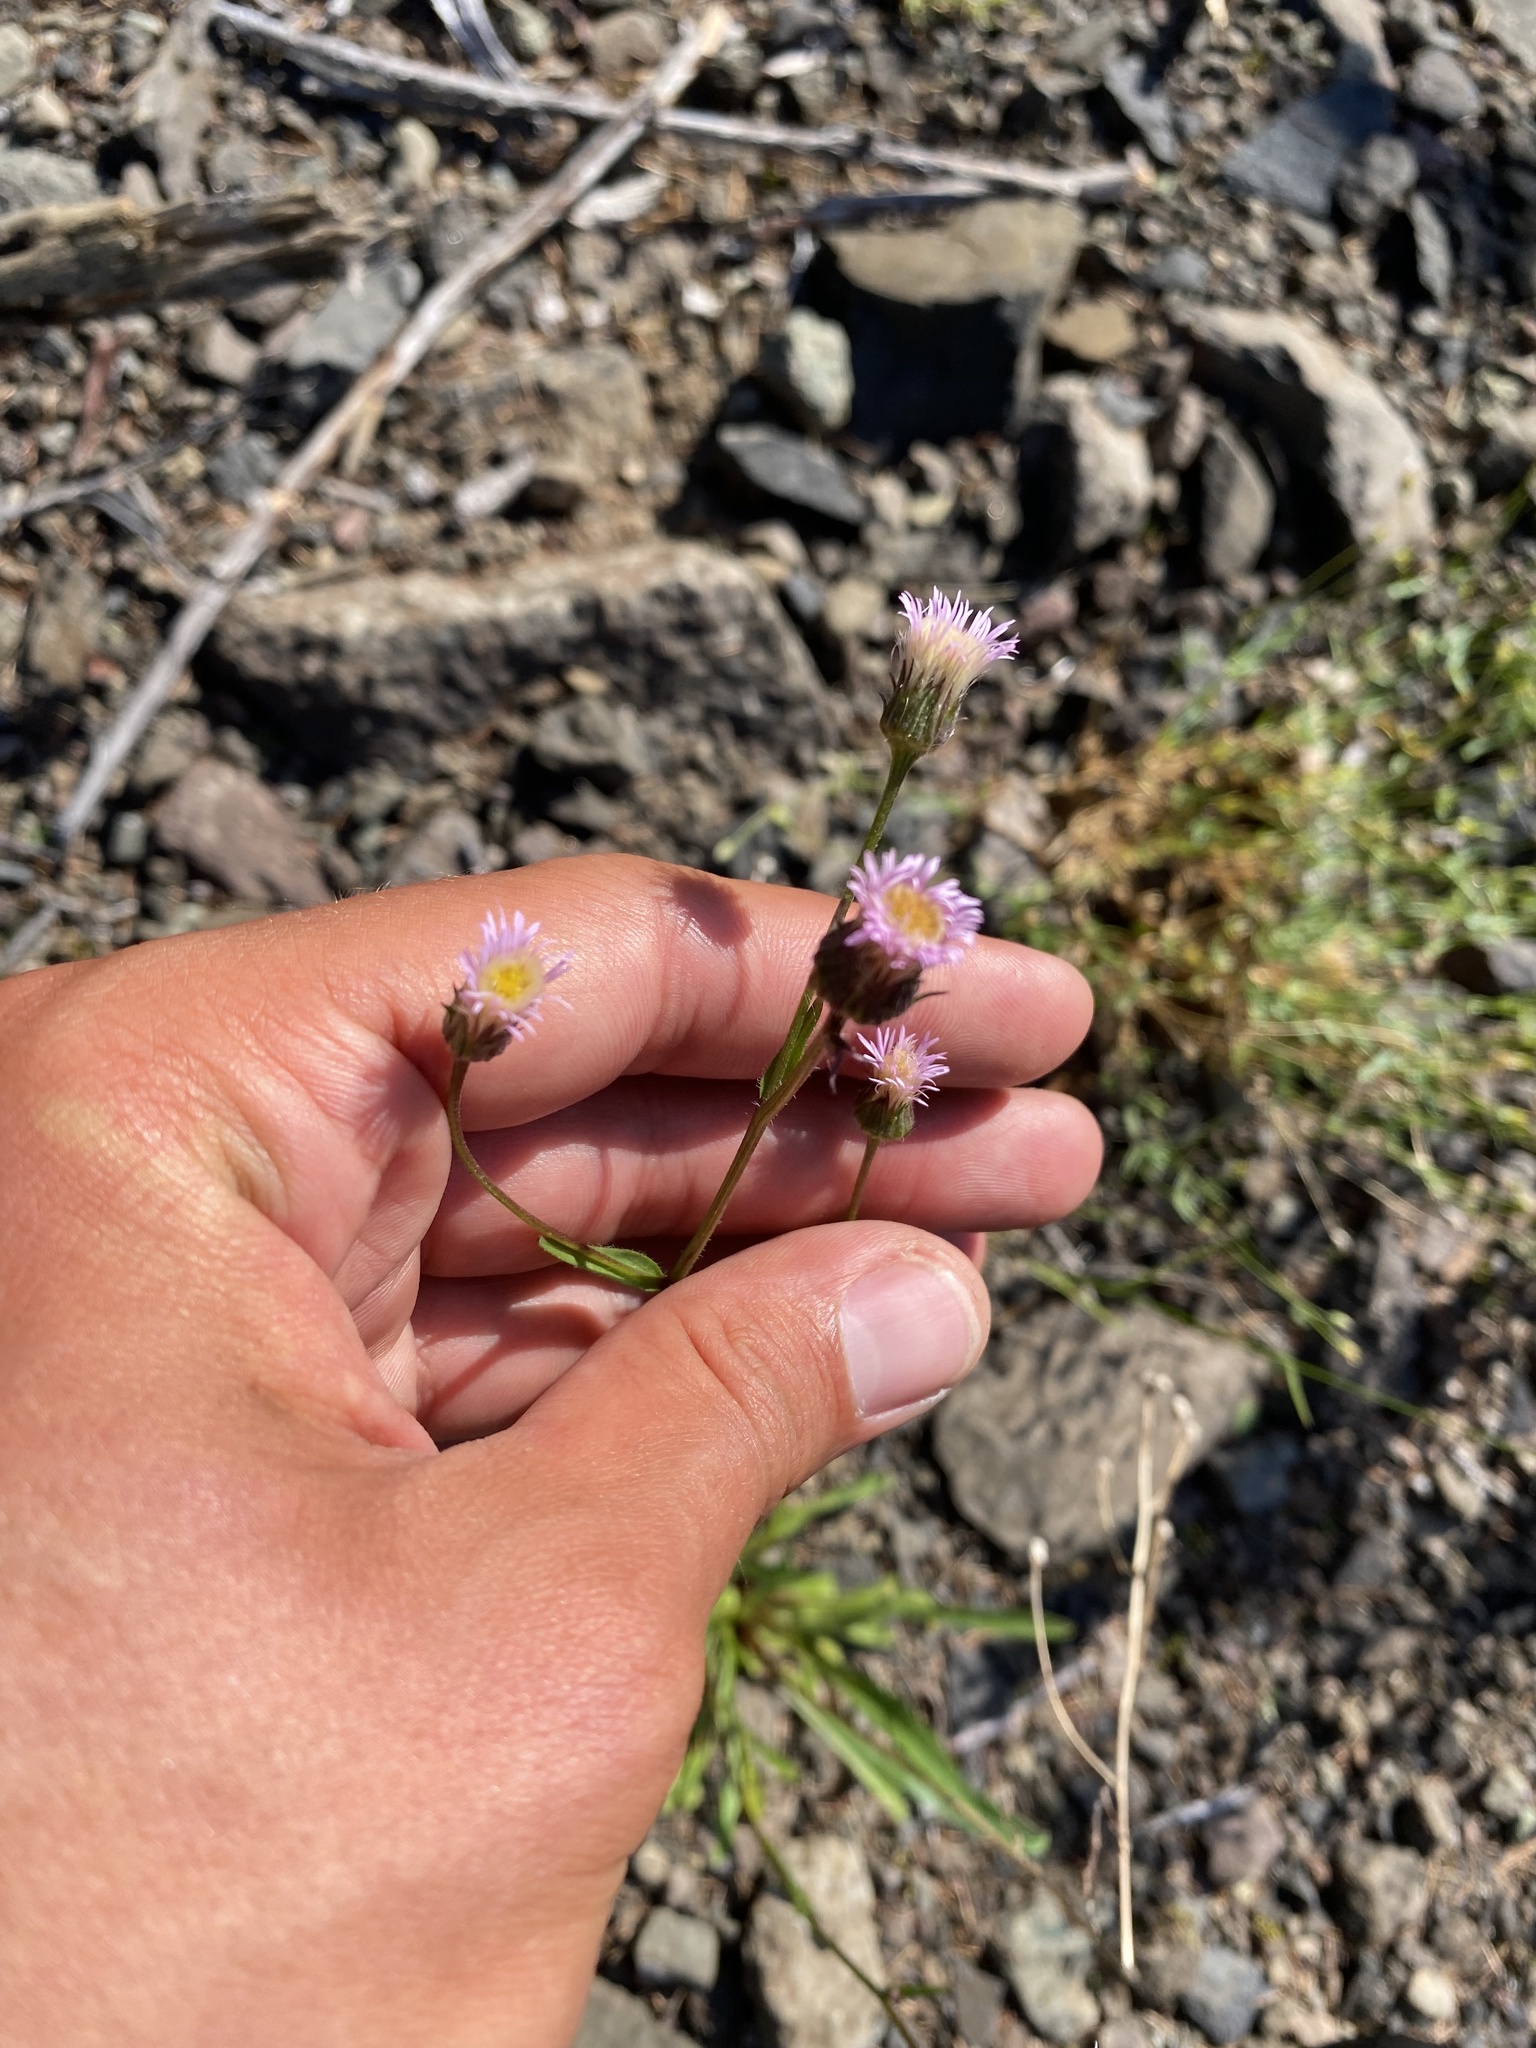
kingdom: Plantae
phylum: Tracheophyta
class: Magnoliopsida
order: Asterales
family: Asteraceae
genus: Erigeron
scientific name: Erigeron acris
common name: Blue fleabane
